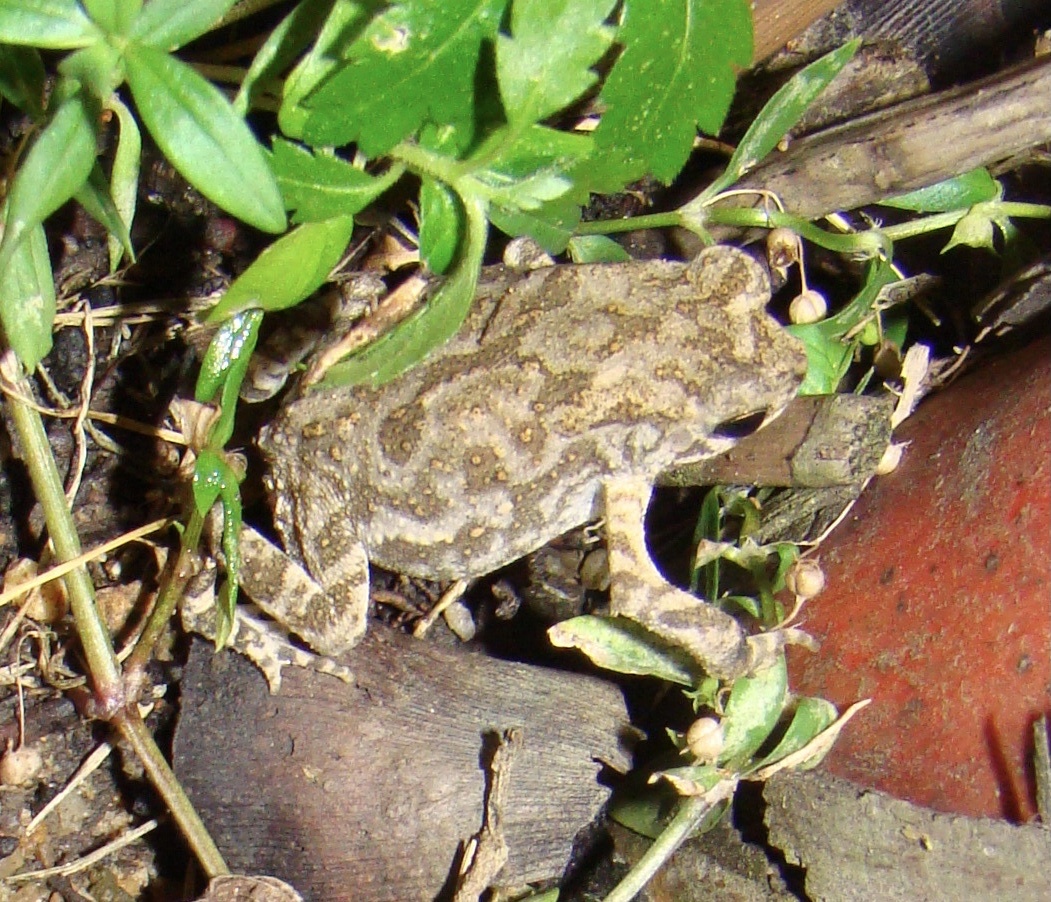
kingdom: Animalia
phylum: Chordata
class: Amphibia
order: Anura
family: Bufonidae
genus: Duttaphrynus
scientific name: Duttaphrynus melanostictus
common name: Common sunda toad
